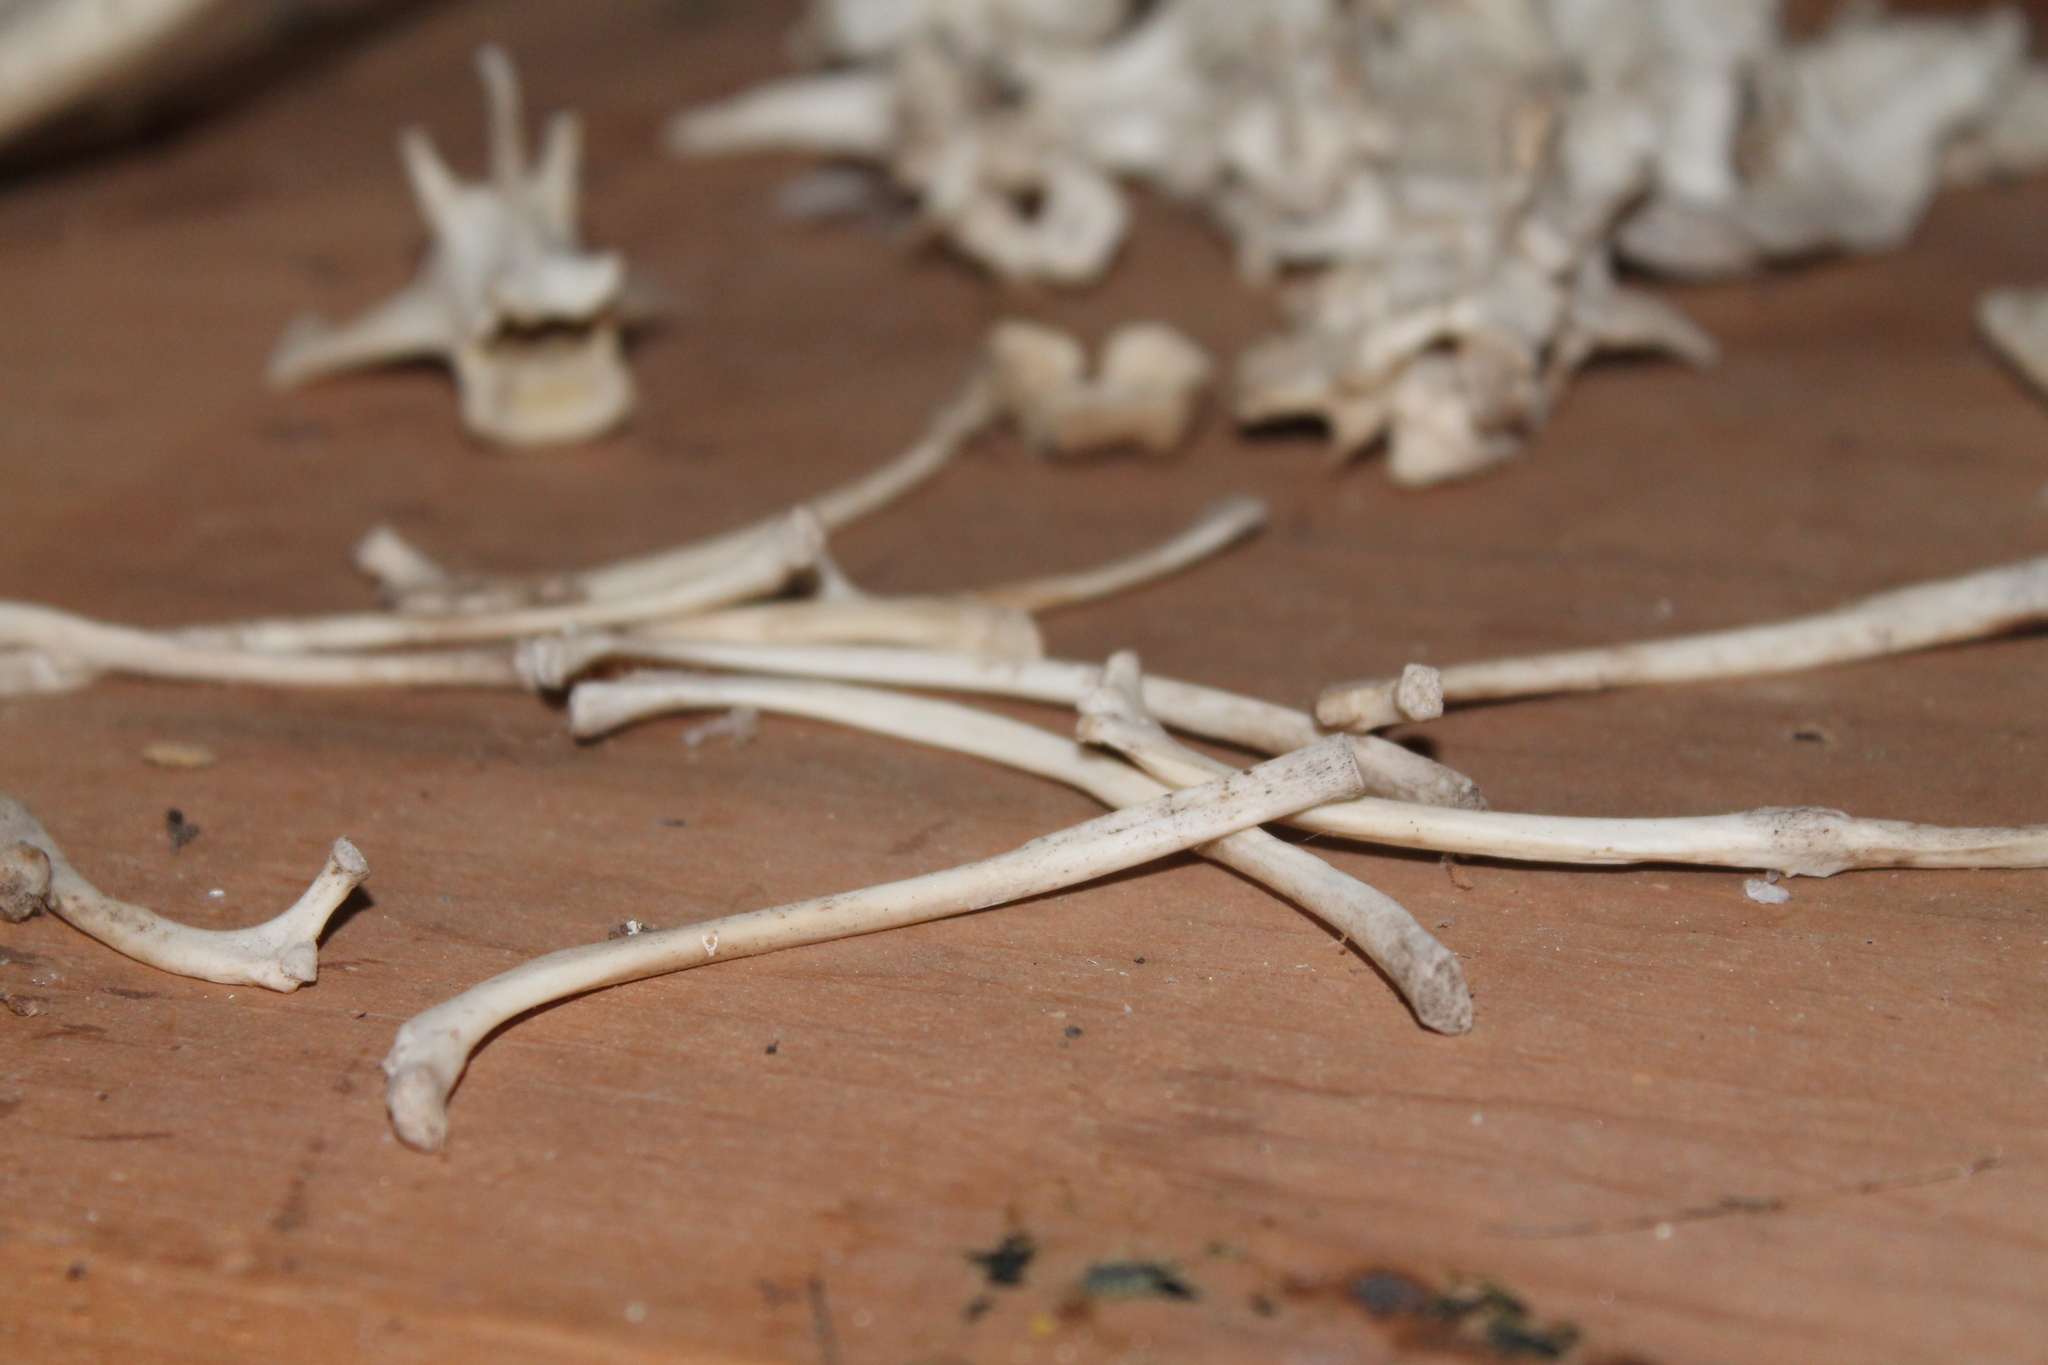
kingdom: Animalia
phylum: Chordata
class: Mammalia
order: Didelphimorphia
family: Didelphidae
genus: Didelphis
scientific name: Didelphis virginiana
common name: Virginia opossum
